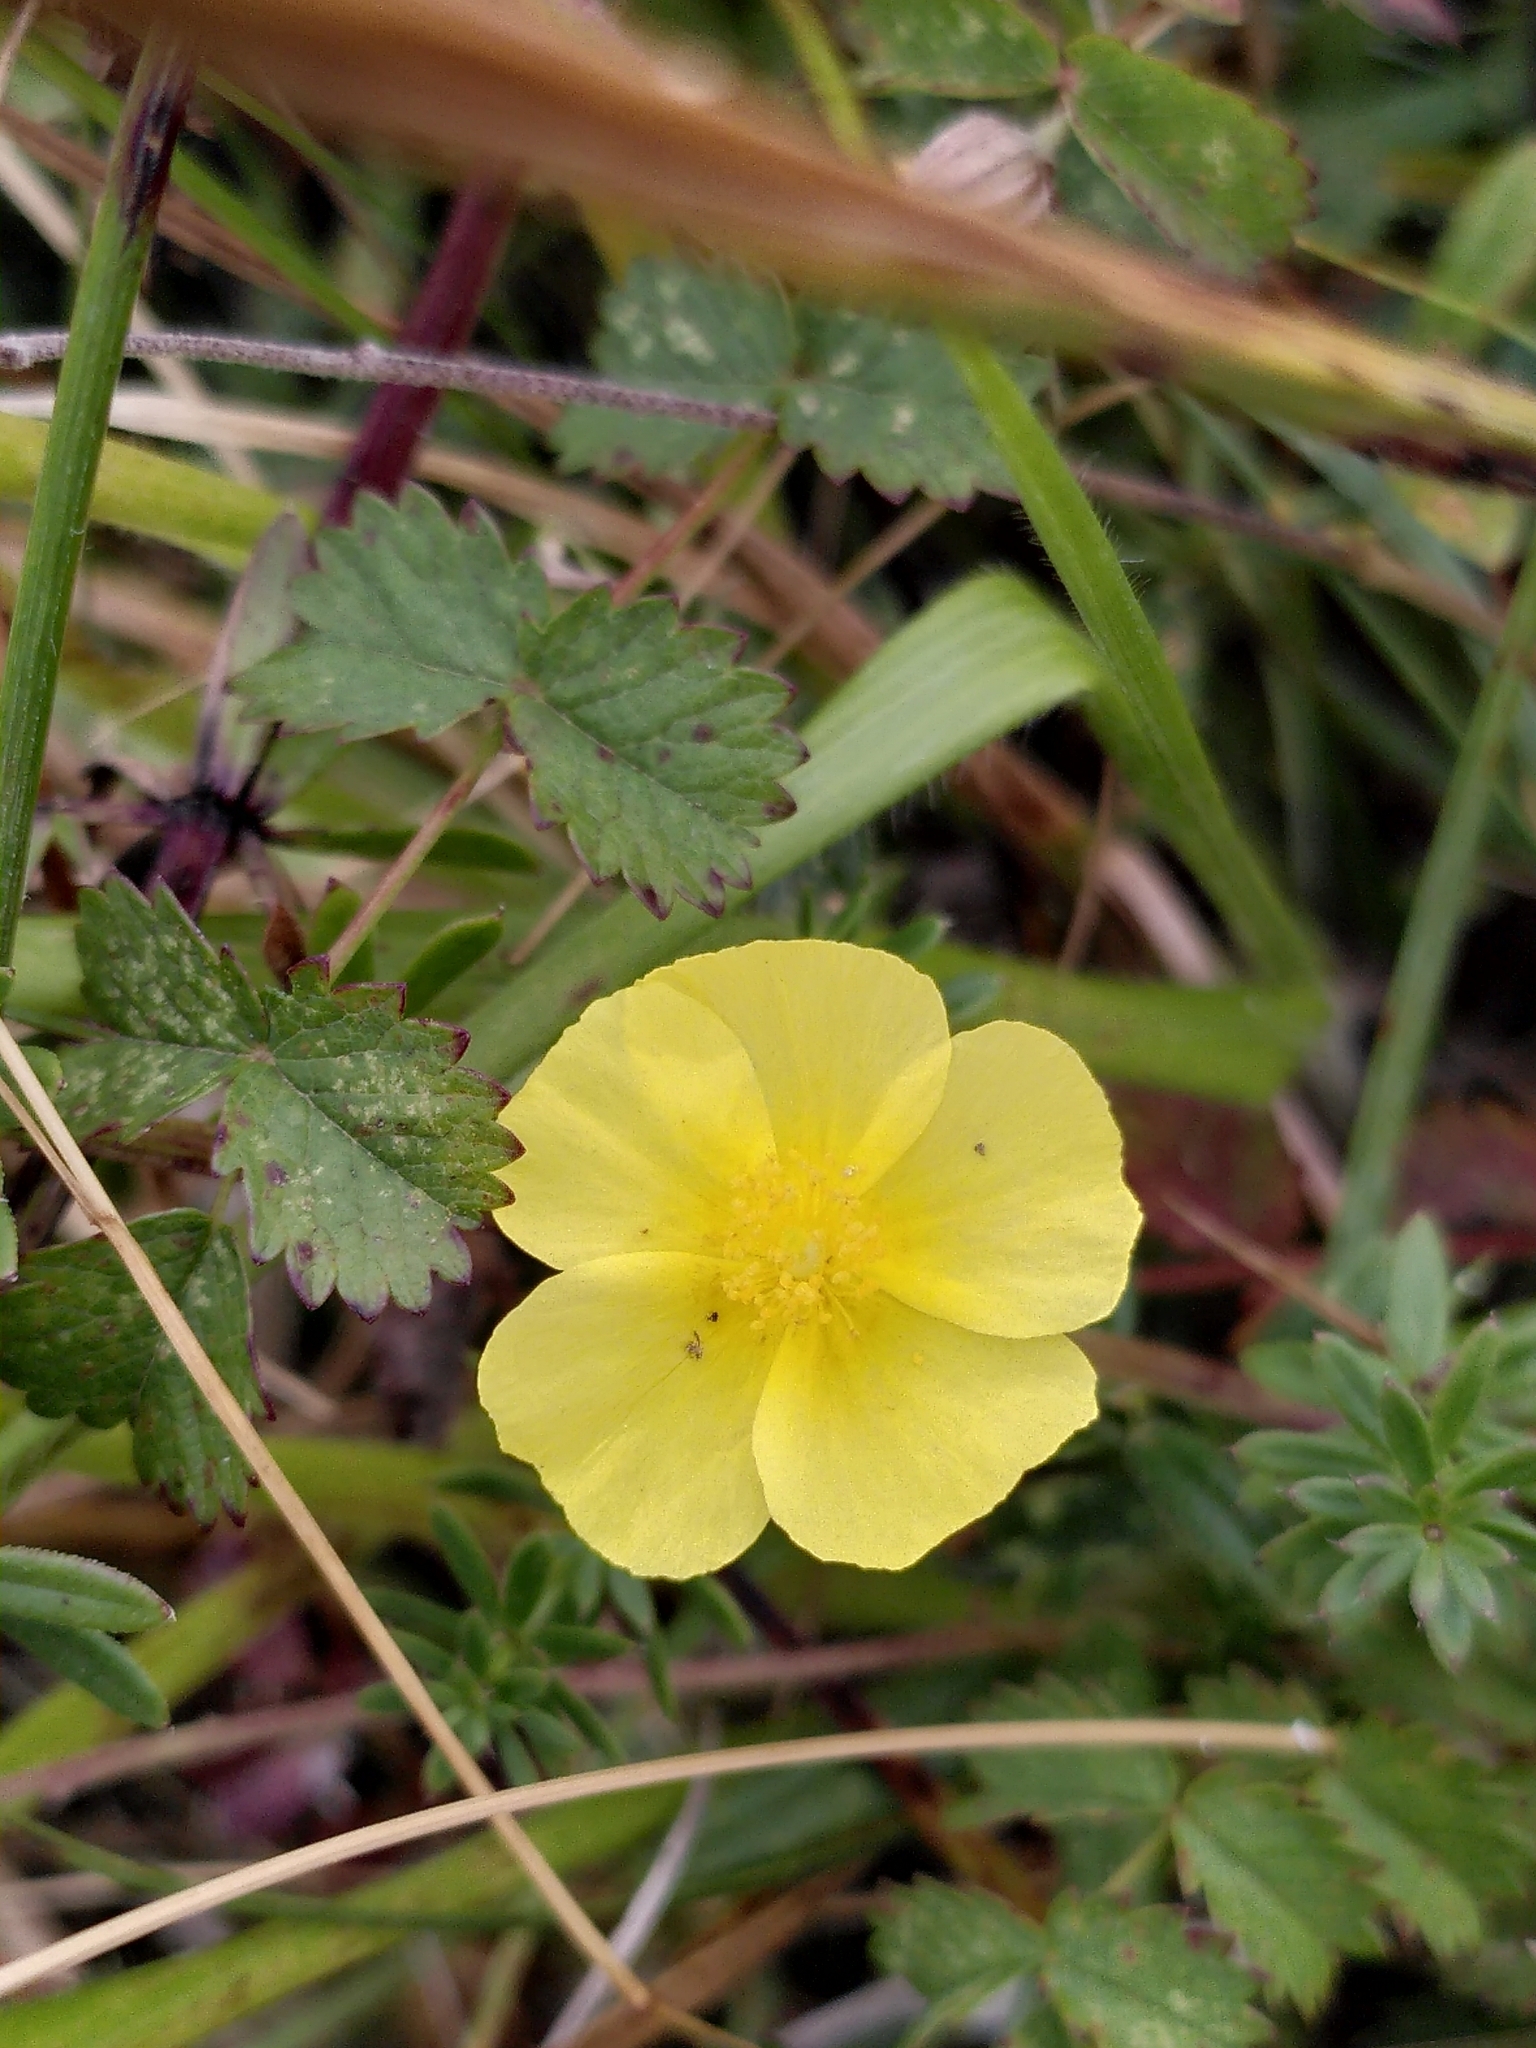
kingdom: Plantae
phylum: Tracheophyta
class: Magnoliopsida
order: Malvales
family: Cistaceae
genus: Helianthemum
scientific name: Helianthemum nummularium
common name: Common rock-rose
